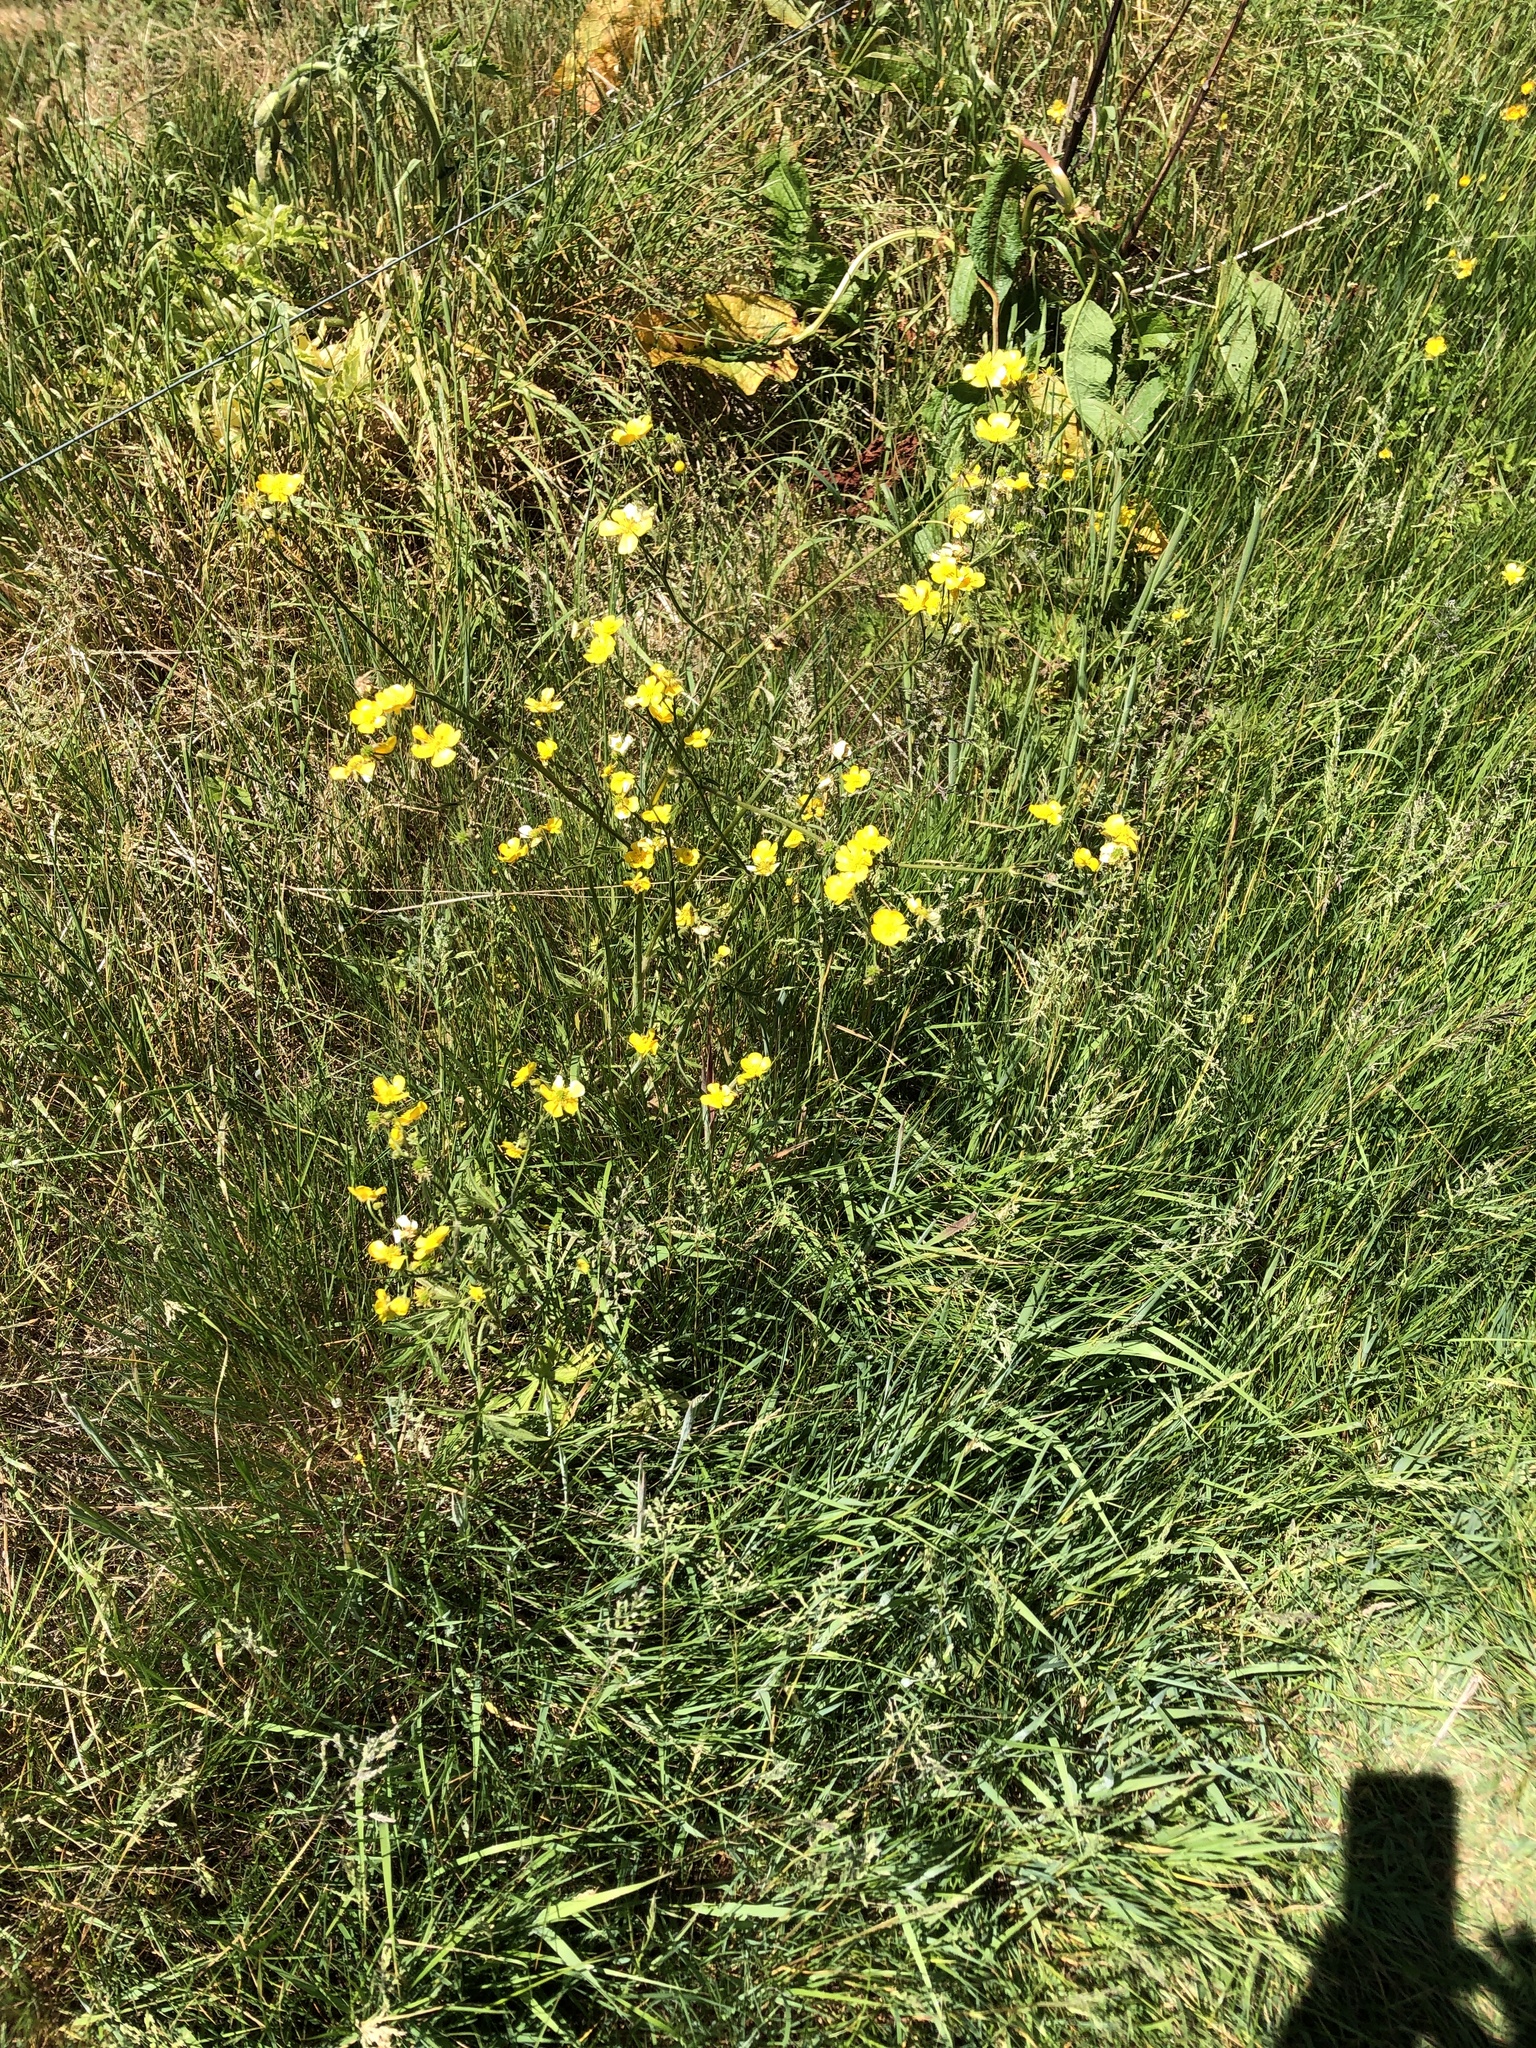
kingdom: Plantae
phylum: Tracheophyta
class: Magnoliopsida
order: Ranunculales
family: Ranunculaceae
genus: Ranunculus
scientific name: Ranunculus acris
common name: Meadow buttercup
